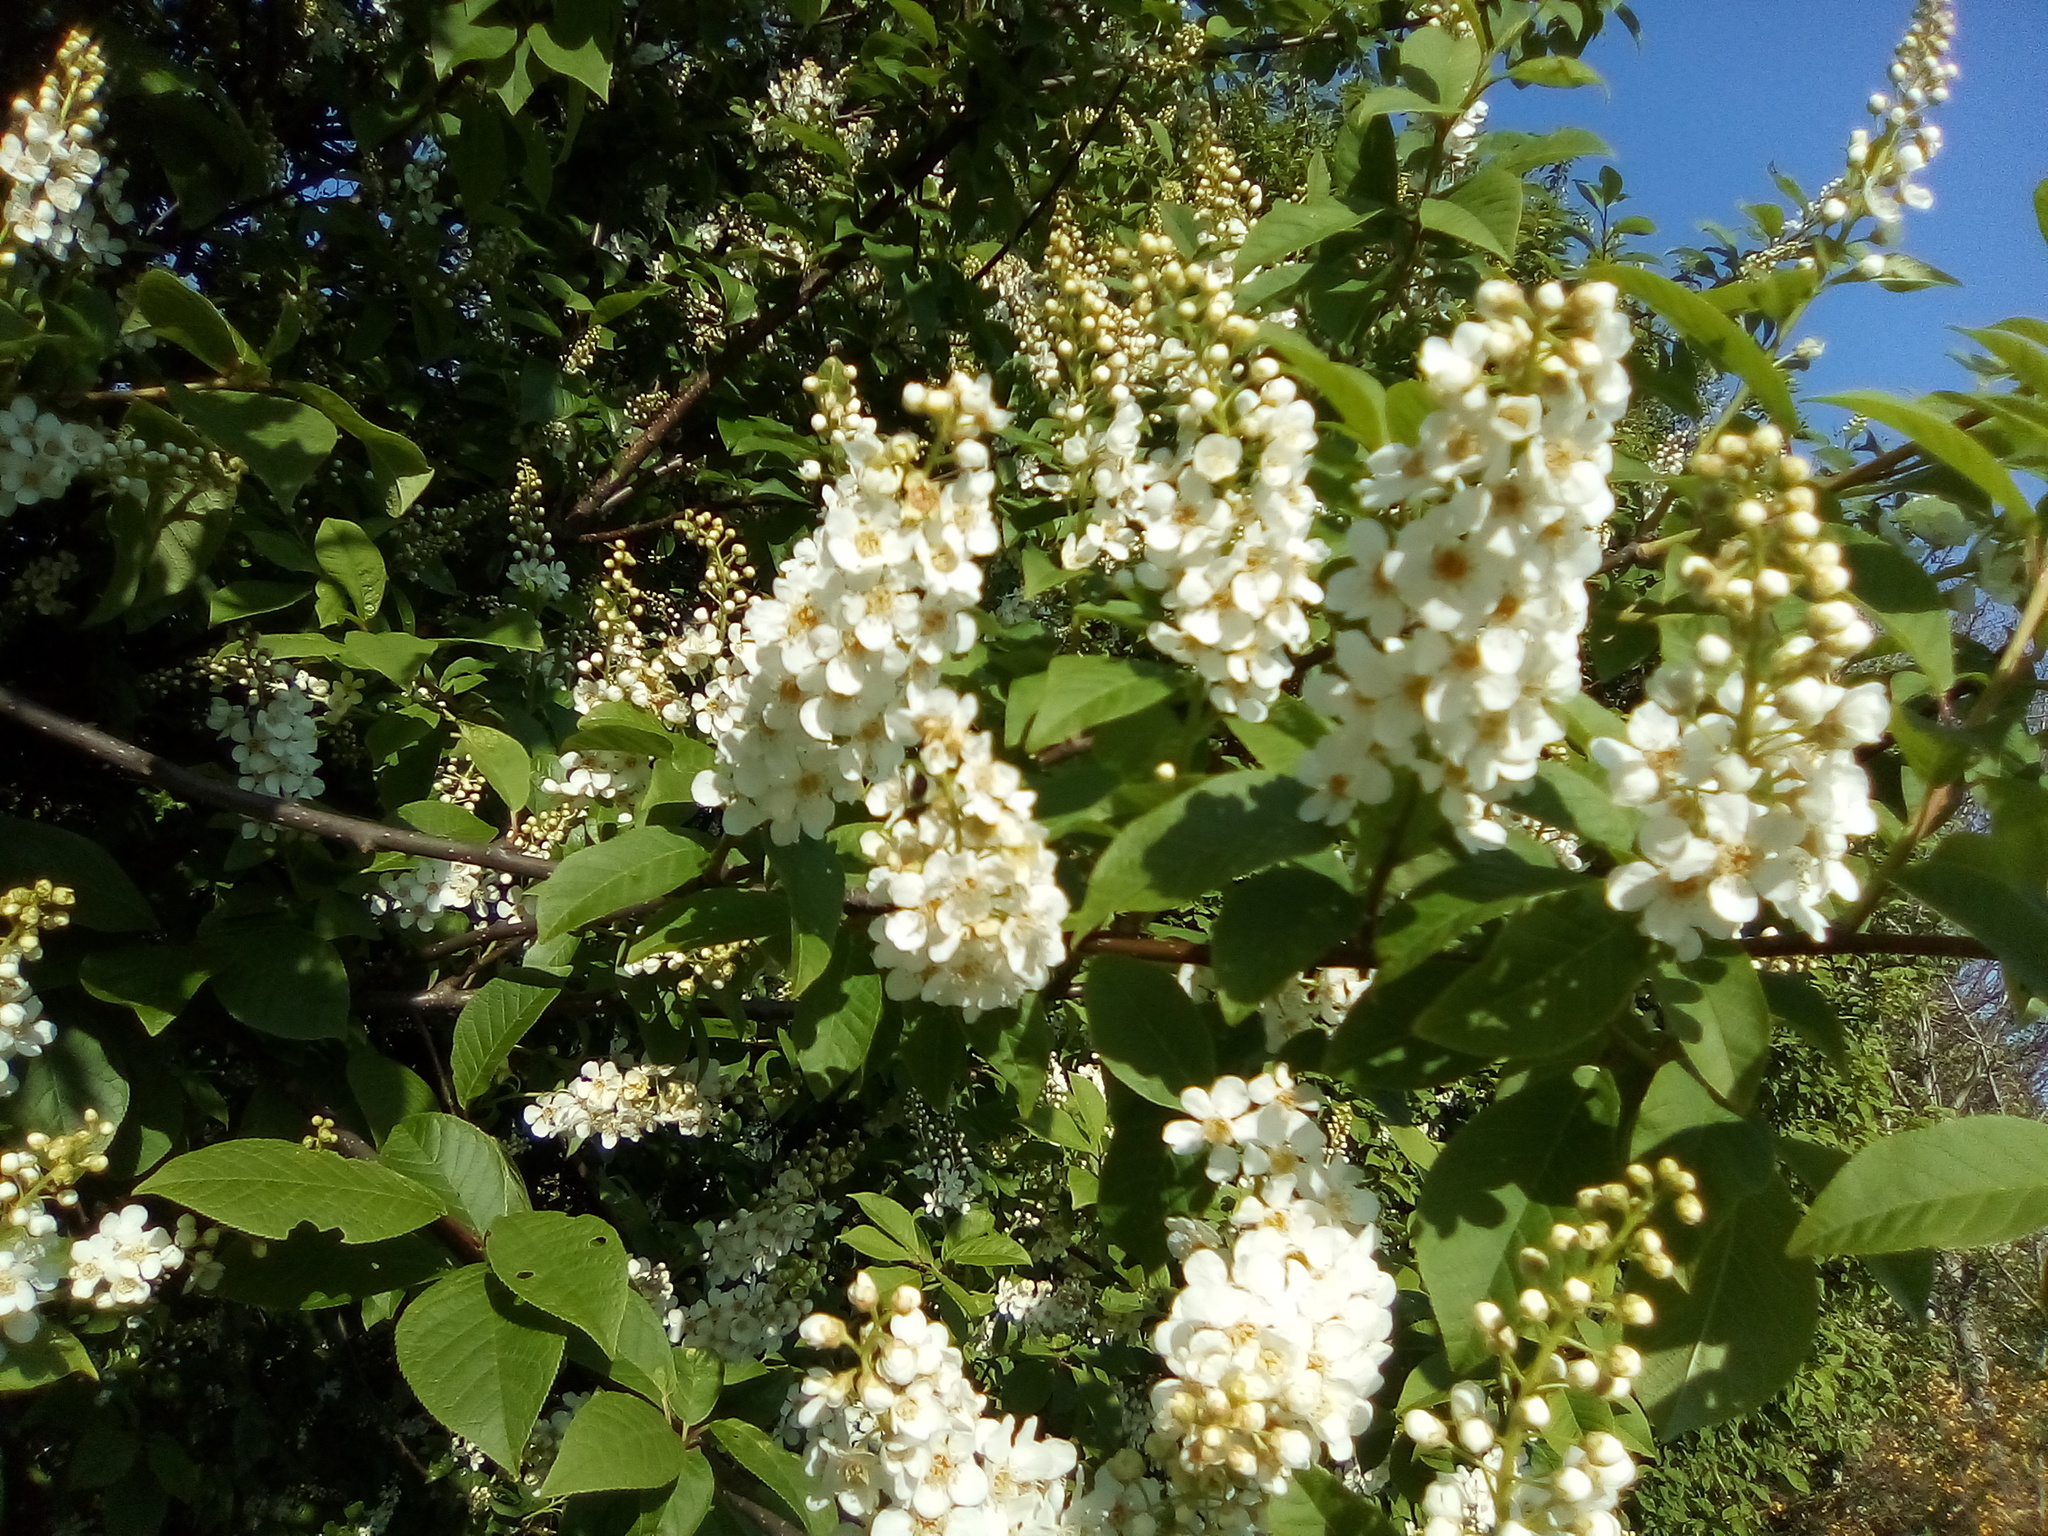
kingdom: Plantae
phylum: Tracheophyta
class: Magnoliopsida
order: Rosales
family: Rosaceae
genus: Prunus
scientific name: Prunus padus
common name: Bird cherry
